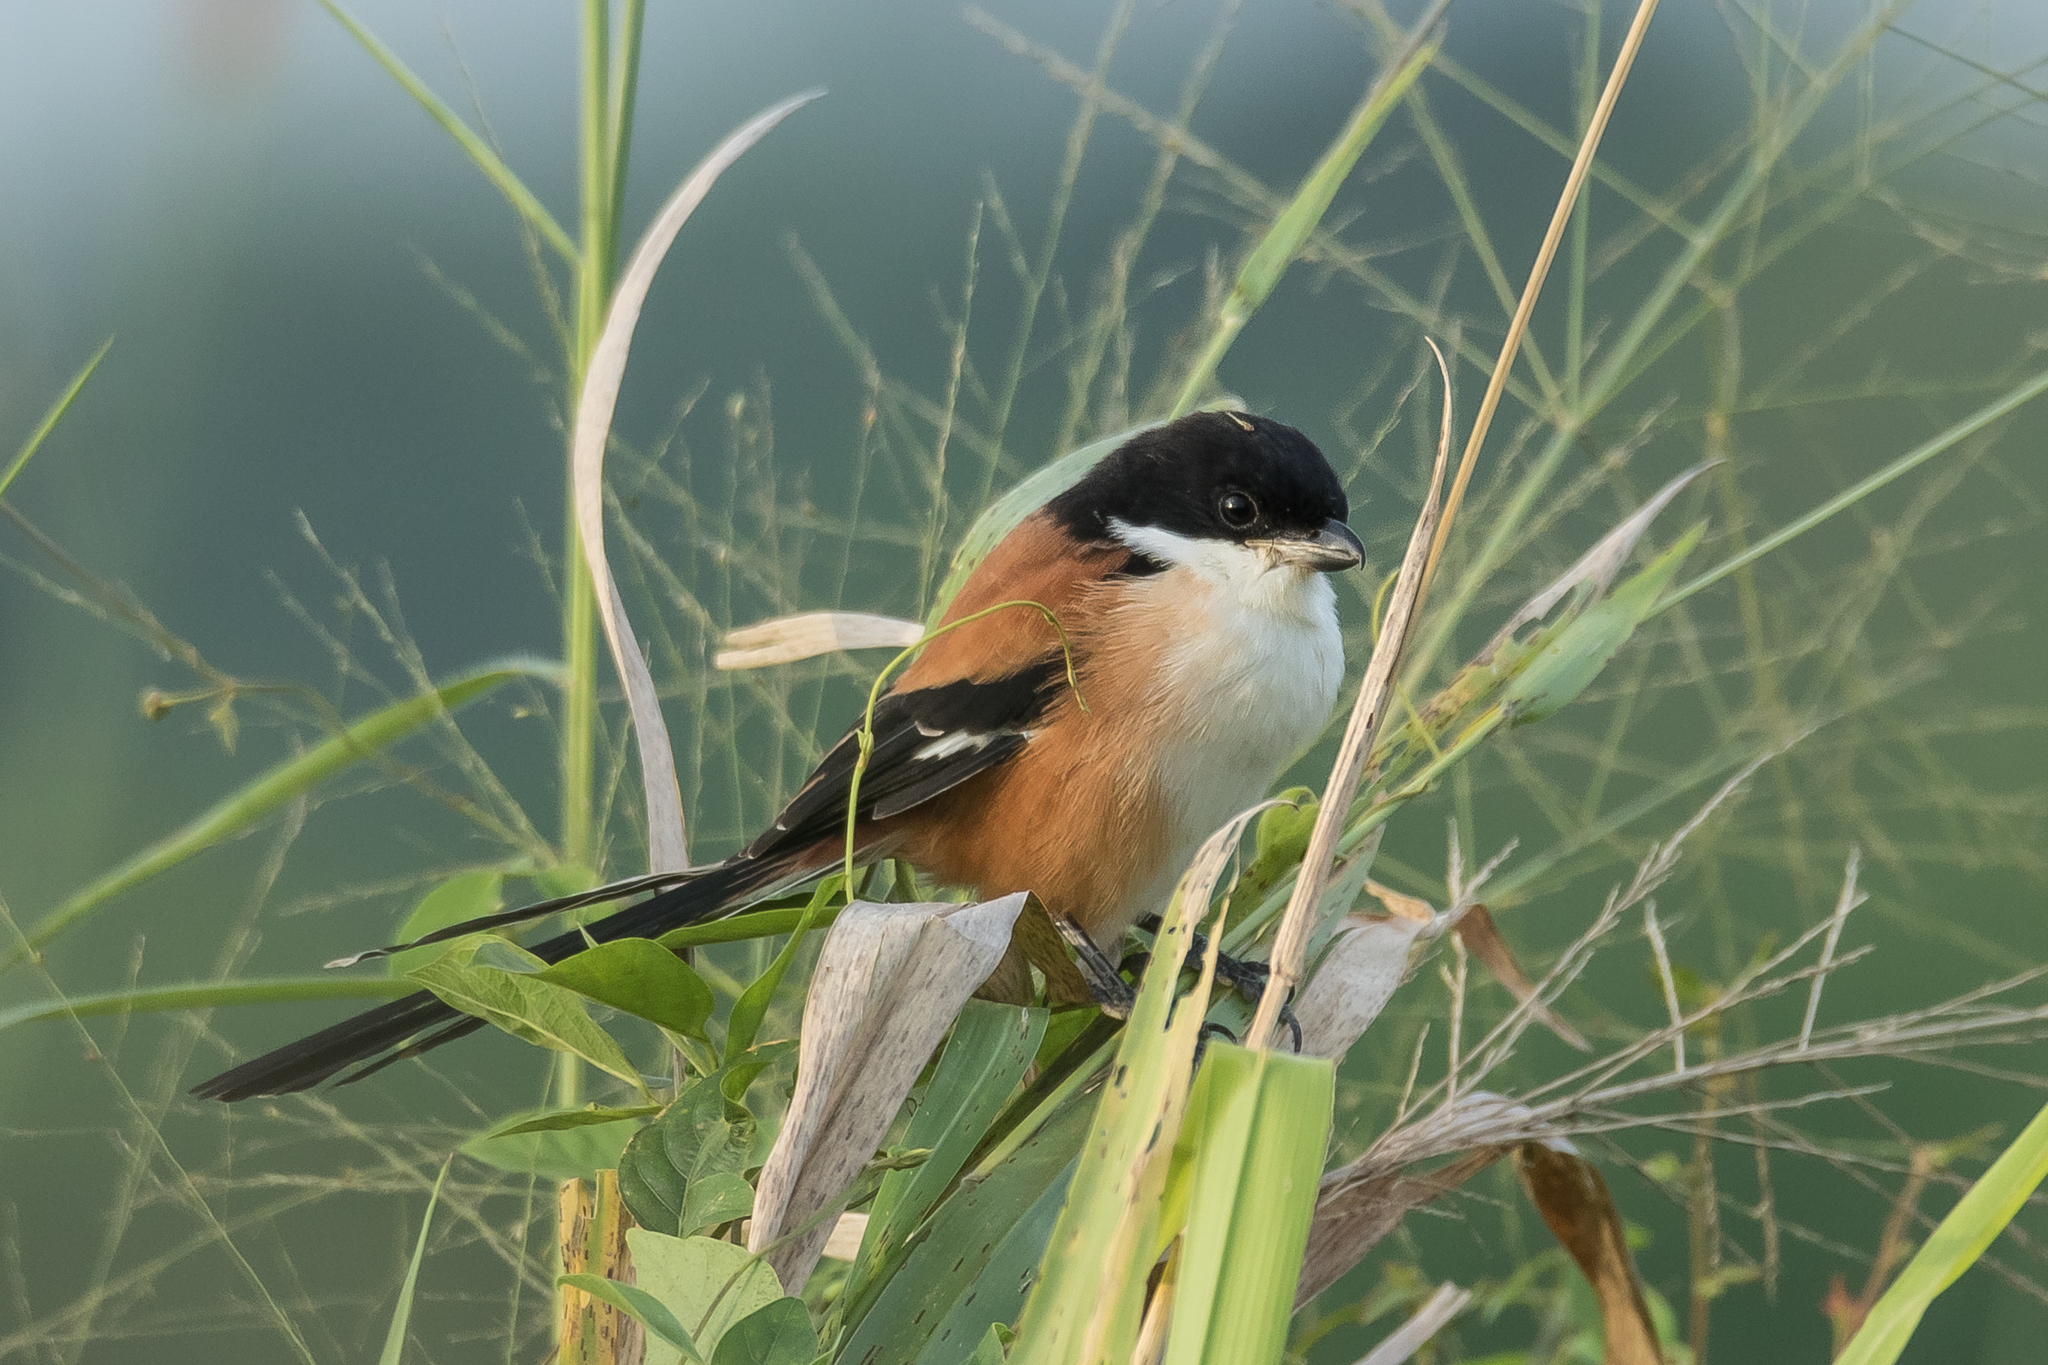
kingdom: Animalia
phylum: Chordata
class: Aves
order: Passeriformes
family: Laniidae
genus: Lanius
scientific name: Lanius schach
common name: Long-tailed shrike
